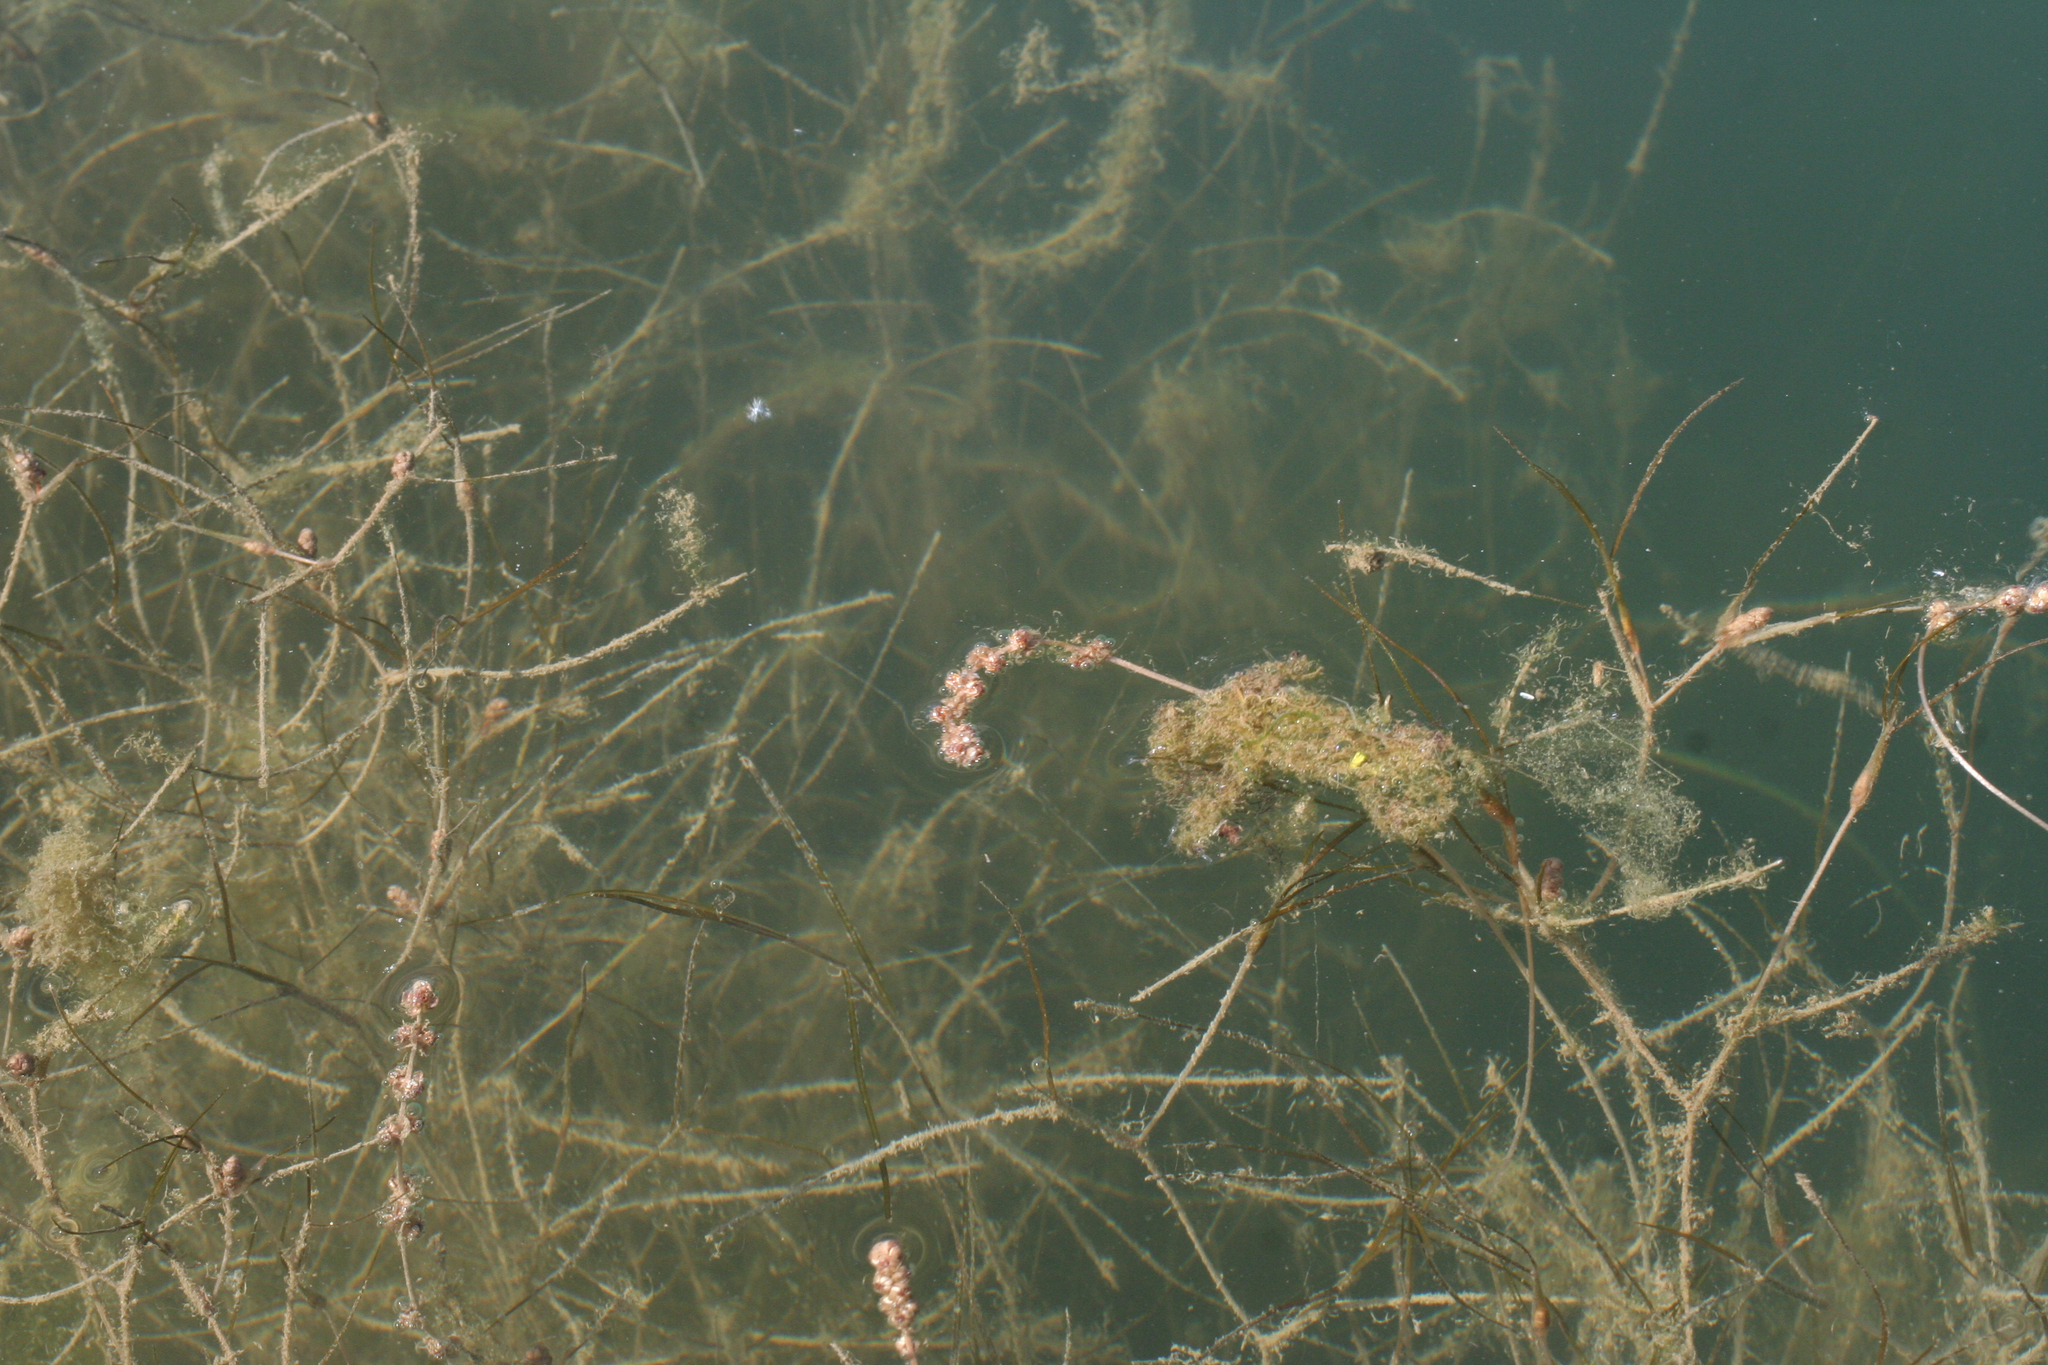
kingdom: Plantae
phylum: Tracheophyta
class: Liliopsida
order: Alismatales
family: Potamogetonaceae
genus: Stuckenia
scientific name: Stuckenia pectinata
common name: Sago pondweed
